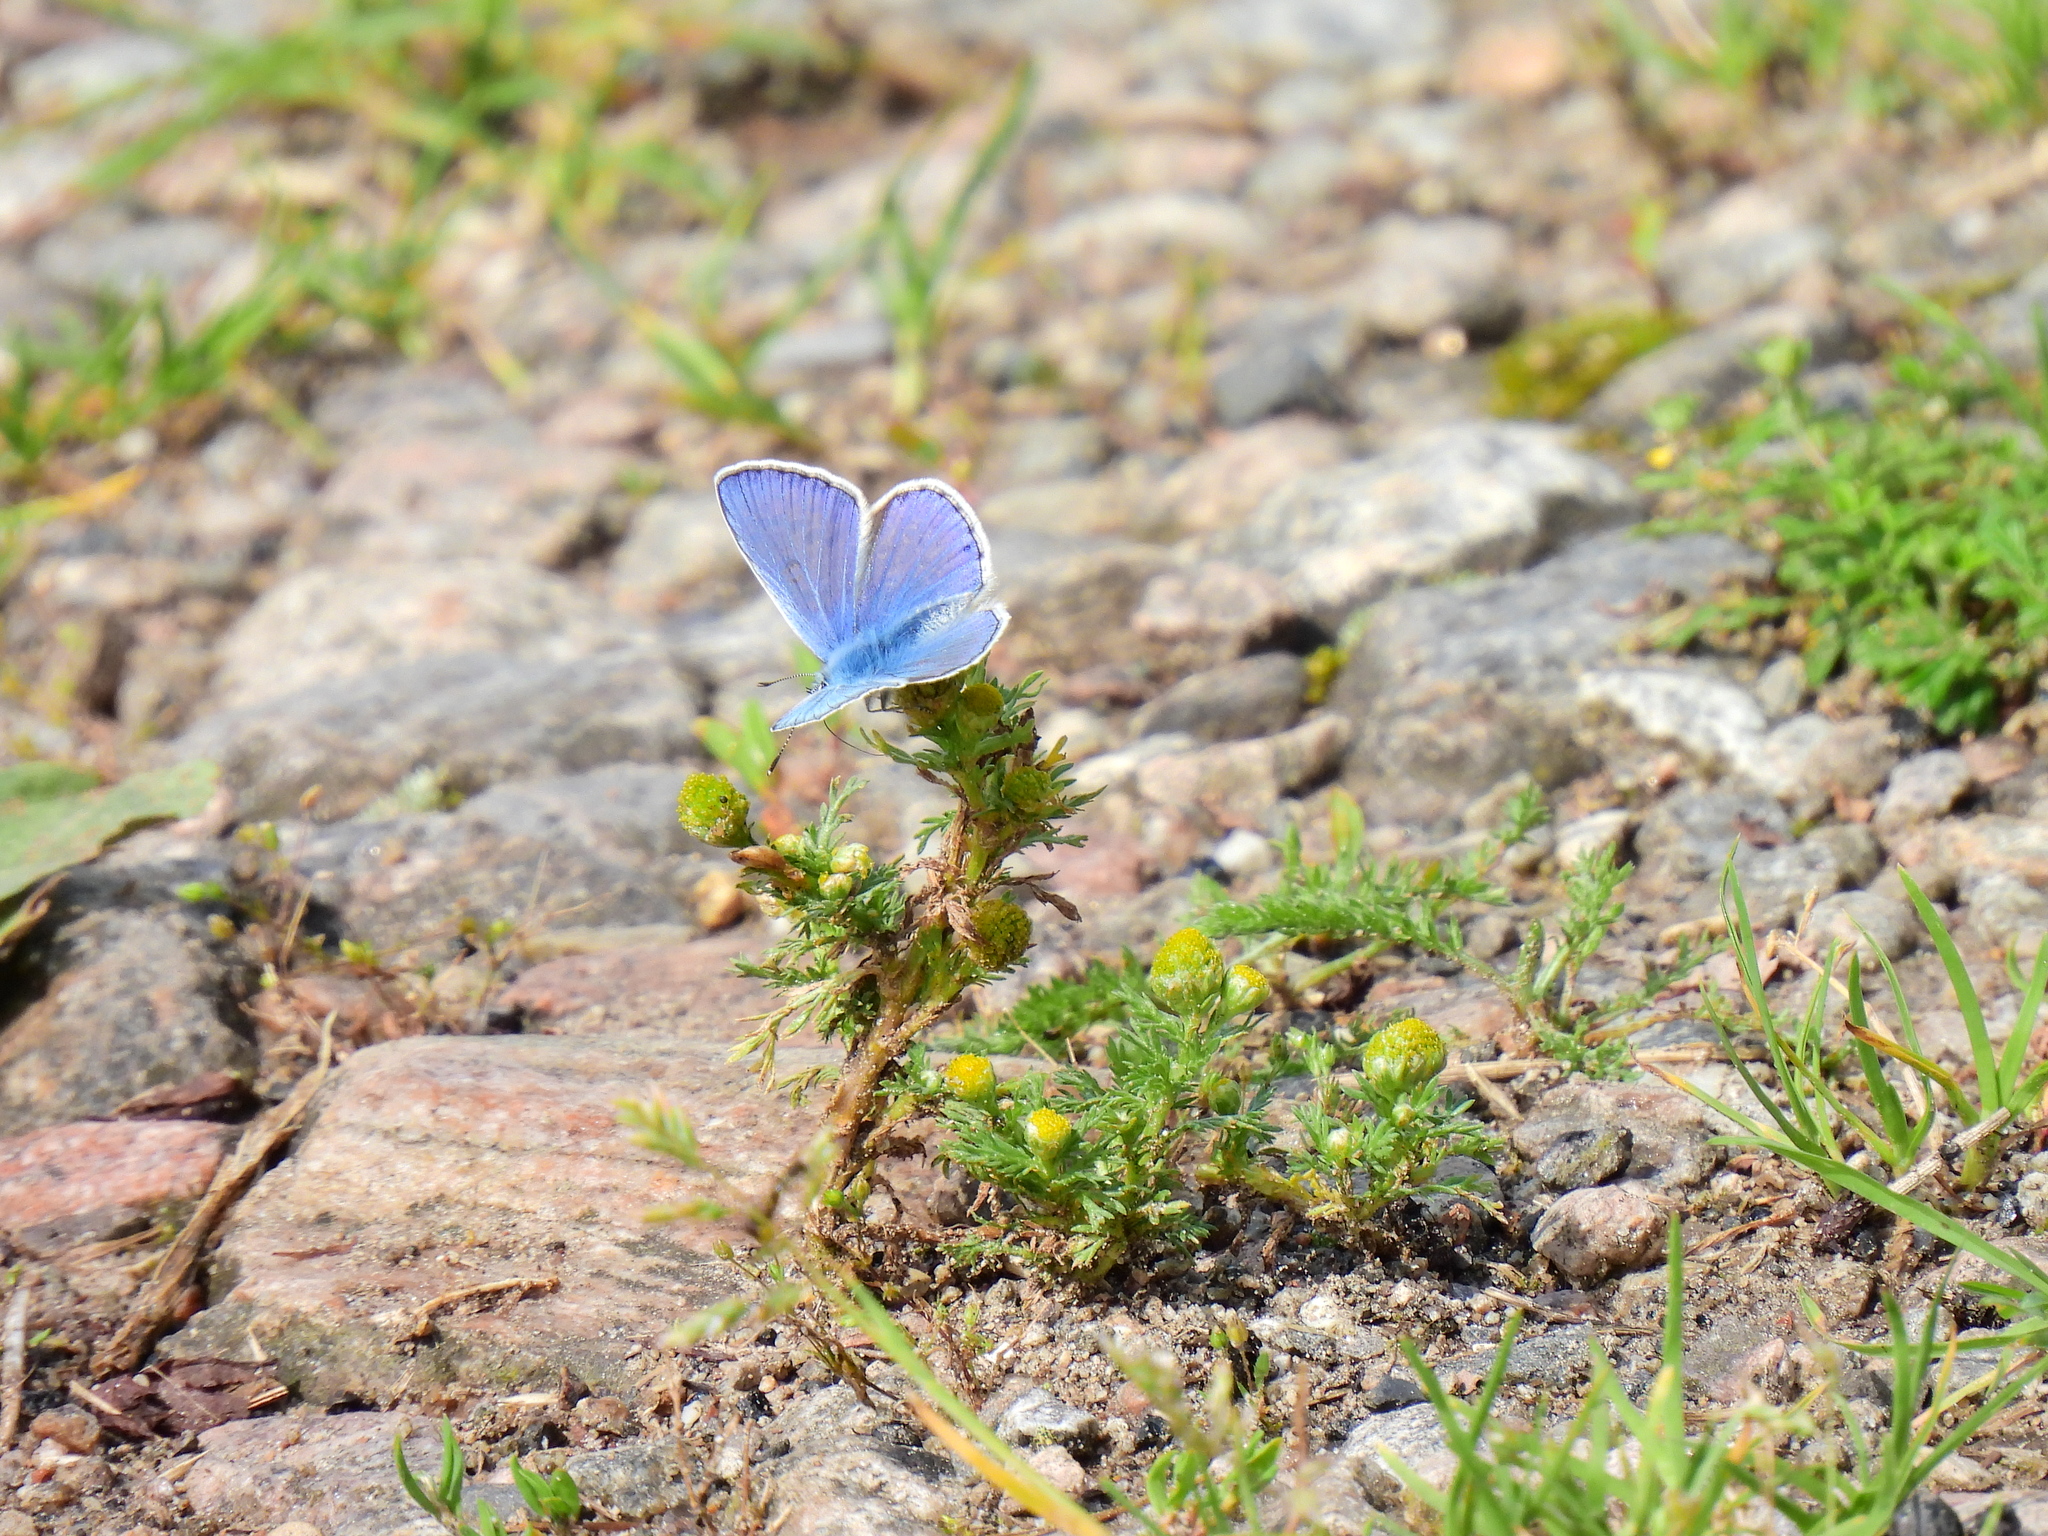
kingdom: Animalia
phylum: Arthropoda
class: Insecta
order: Lepidoptera
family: Lycaenidae
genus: Polyommatus
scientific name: Polyommatus icarus
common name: Common blue
